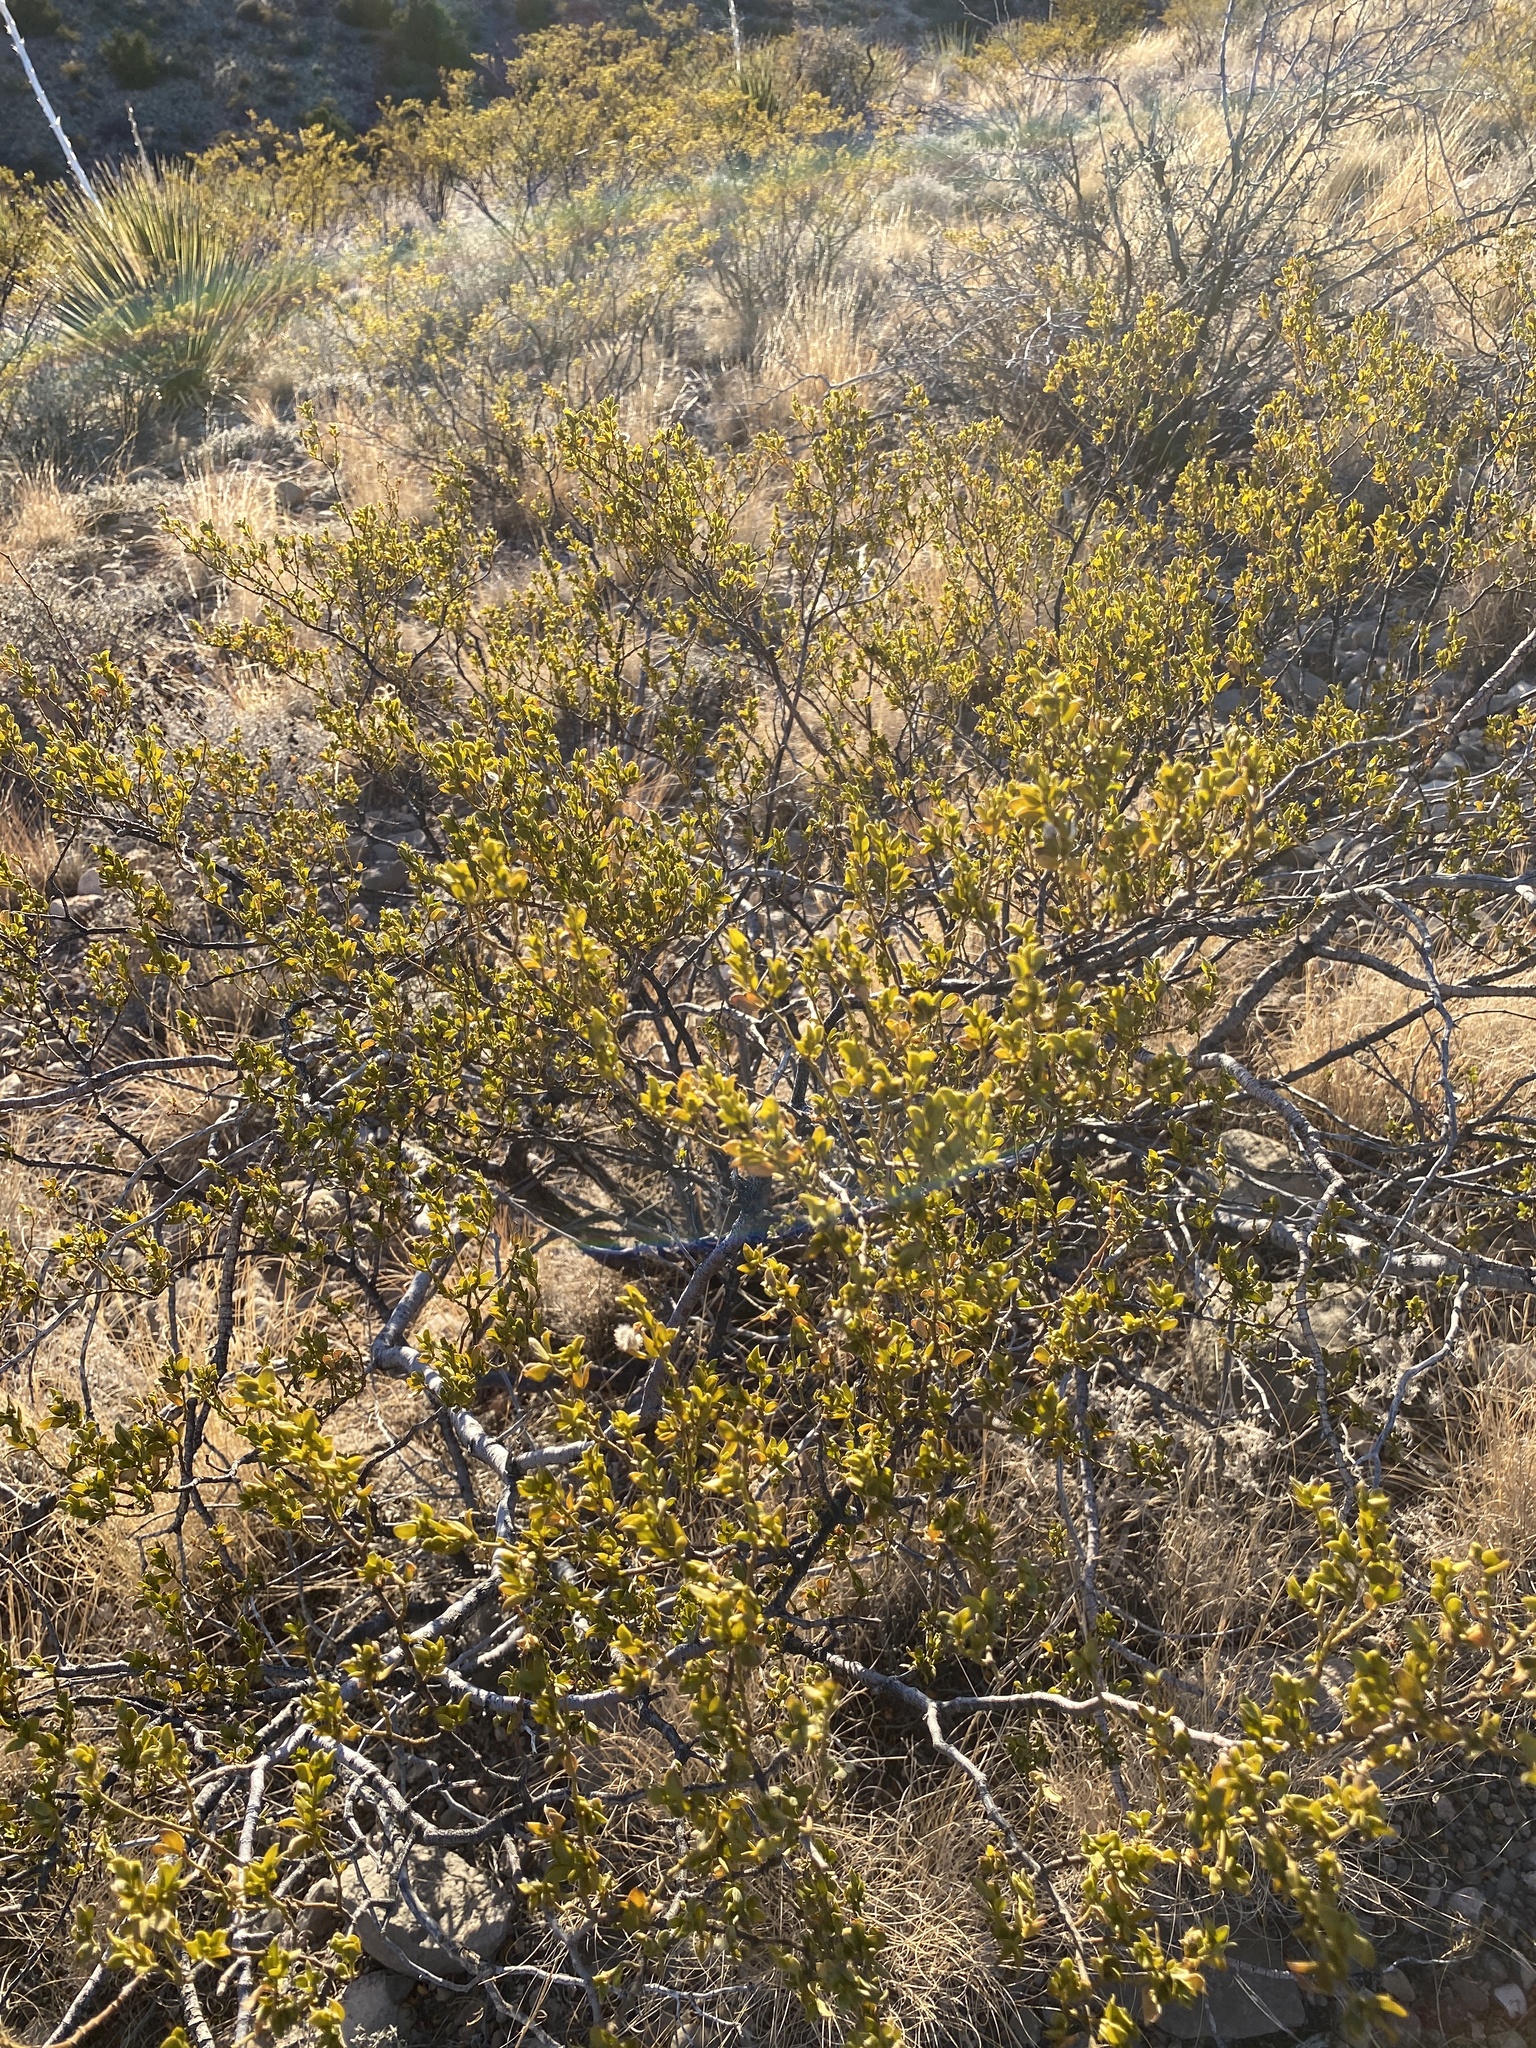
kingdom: Plantae
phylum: Tracheophyta
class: Magnoliopsida
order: Zygophyllales
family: Zygophyllaceae
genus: Larrea
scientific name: Larrea tridentata
